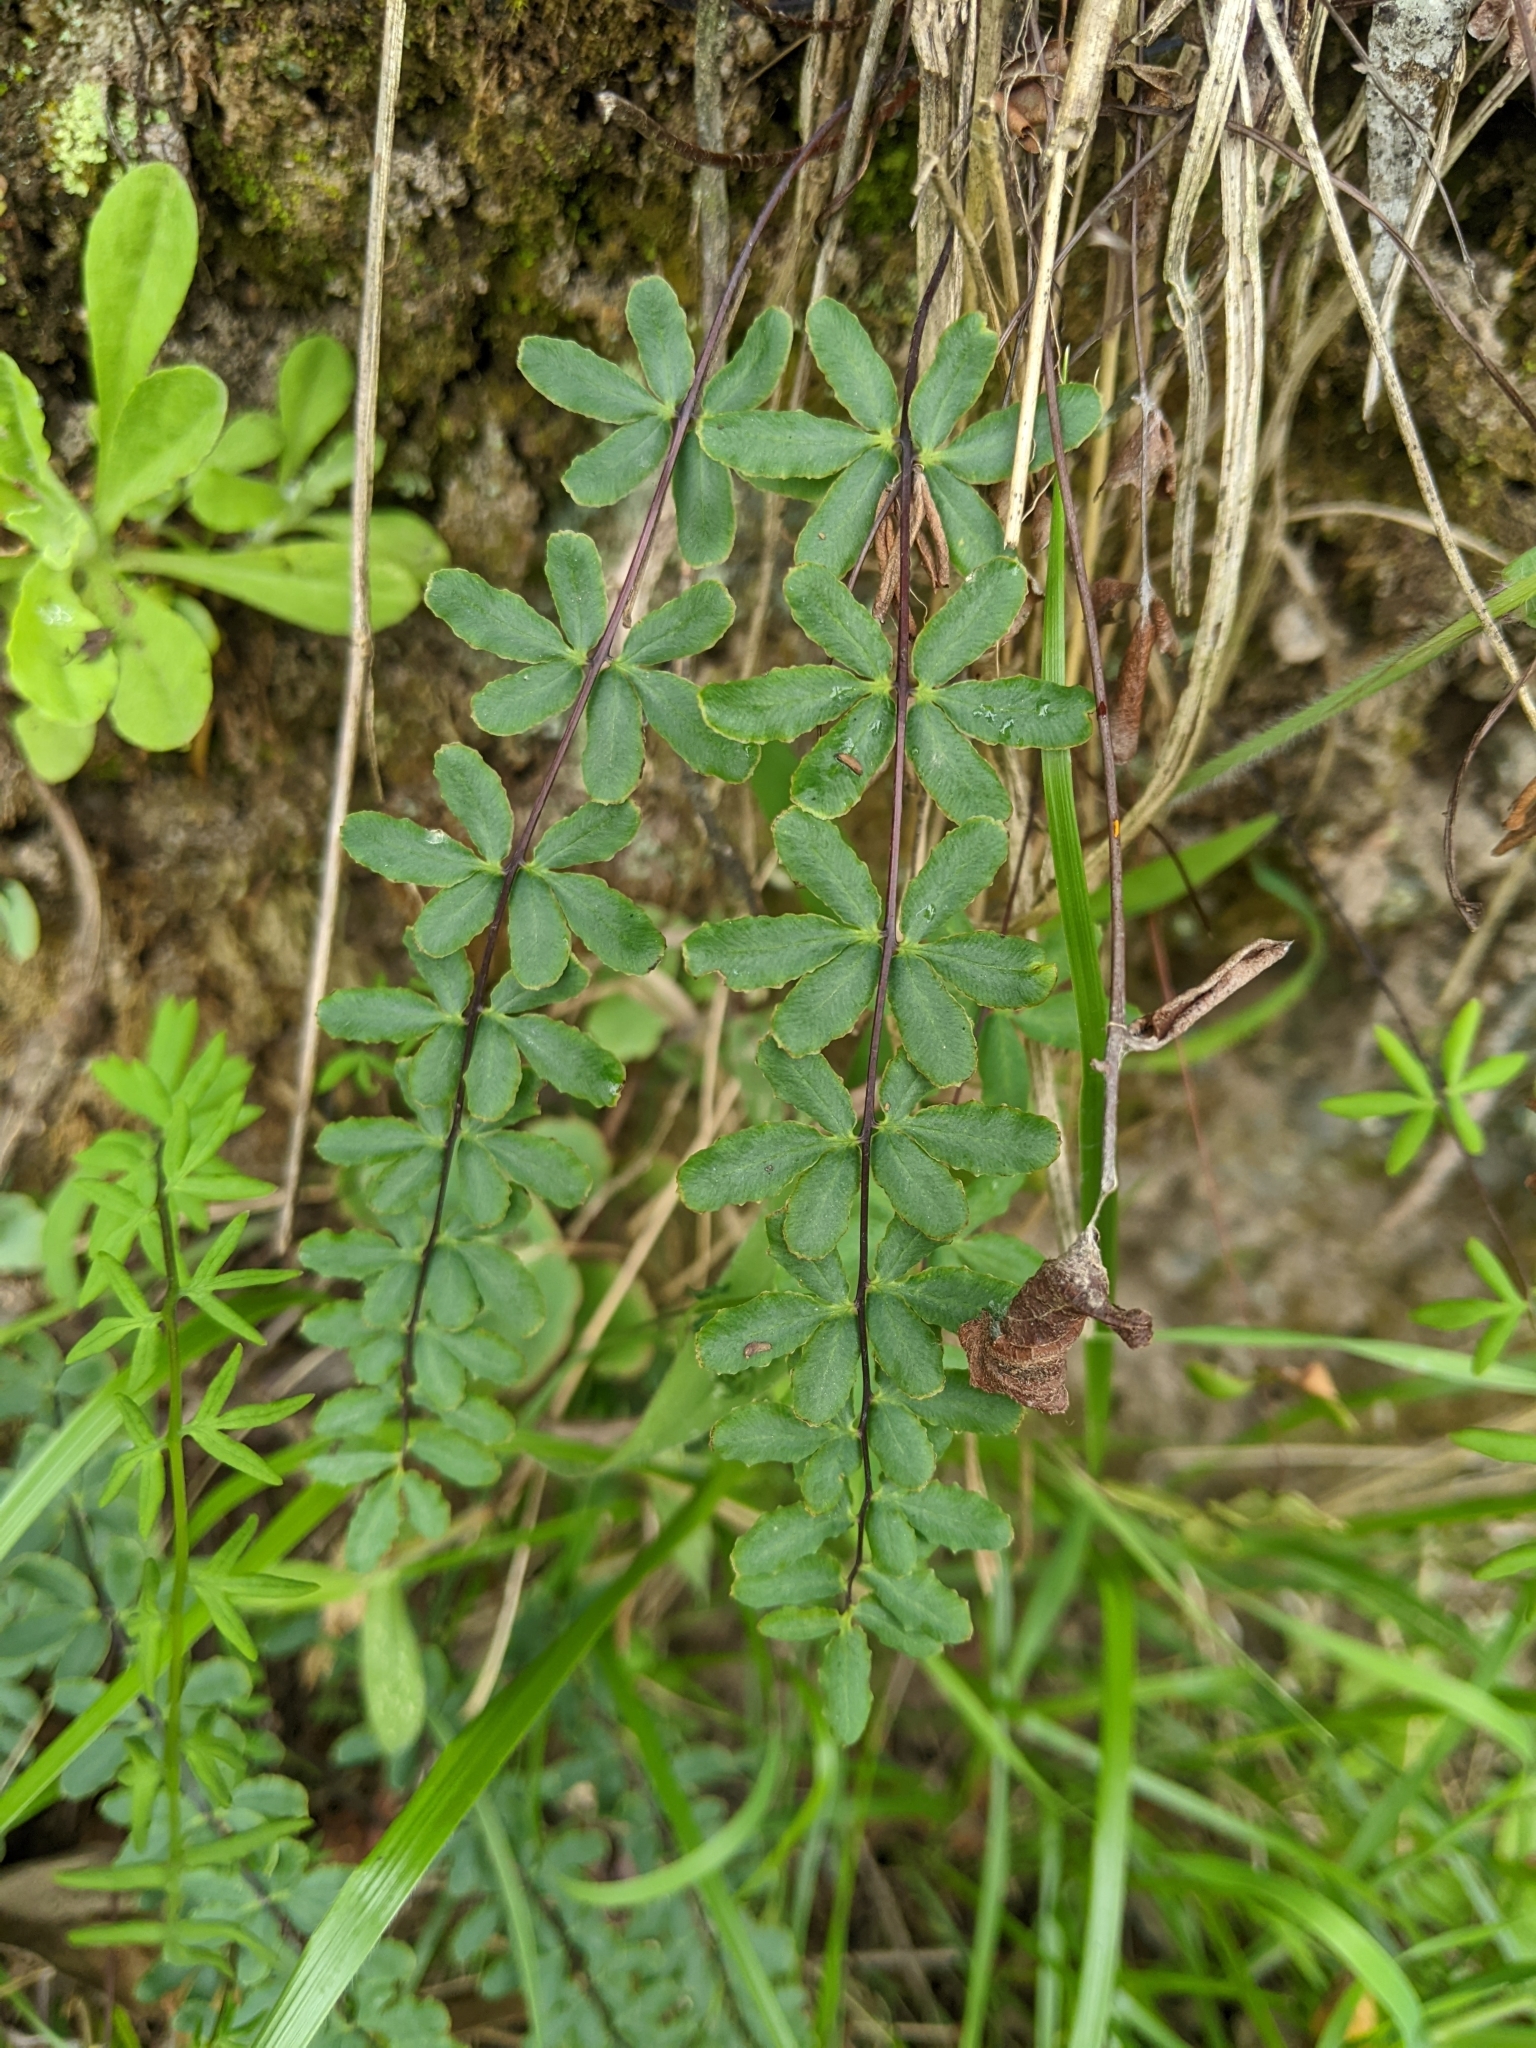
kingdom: Plantae
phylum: Tracheophyta
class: Polypodiopsida
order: Polypodiales
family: Pteridaceae
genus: Pellaea
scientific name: Pellaea ternifolia
